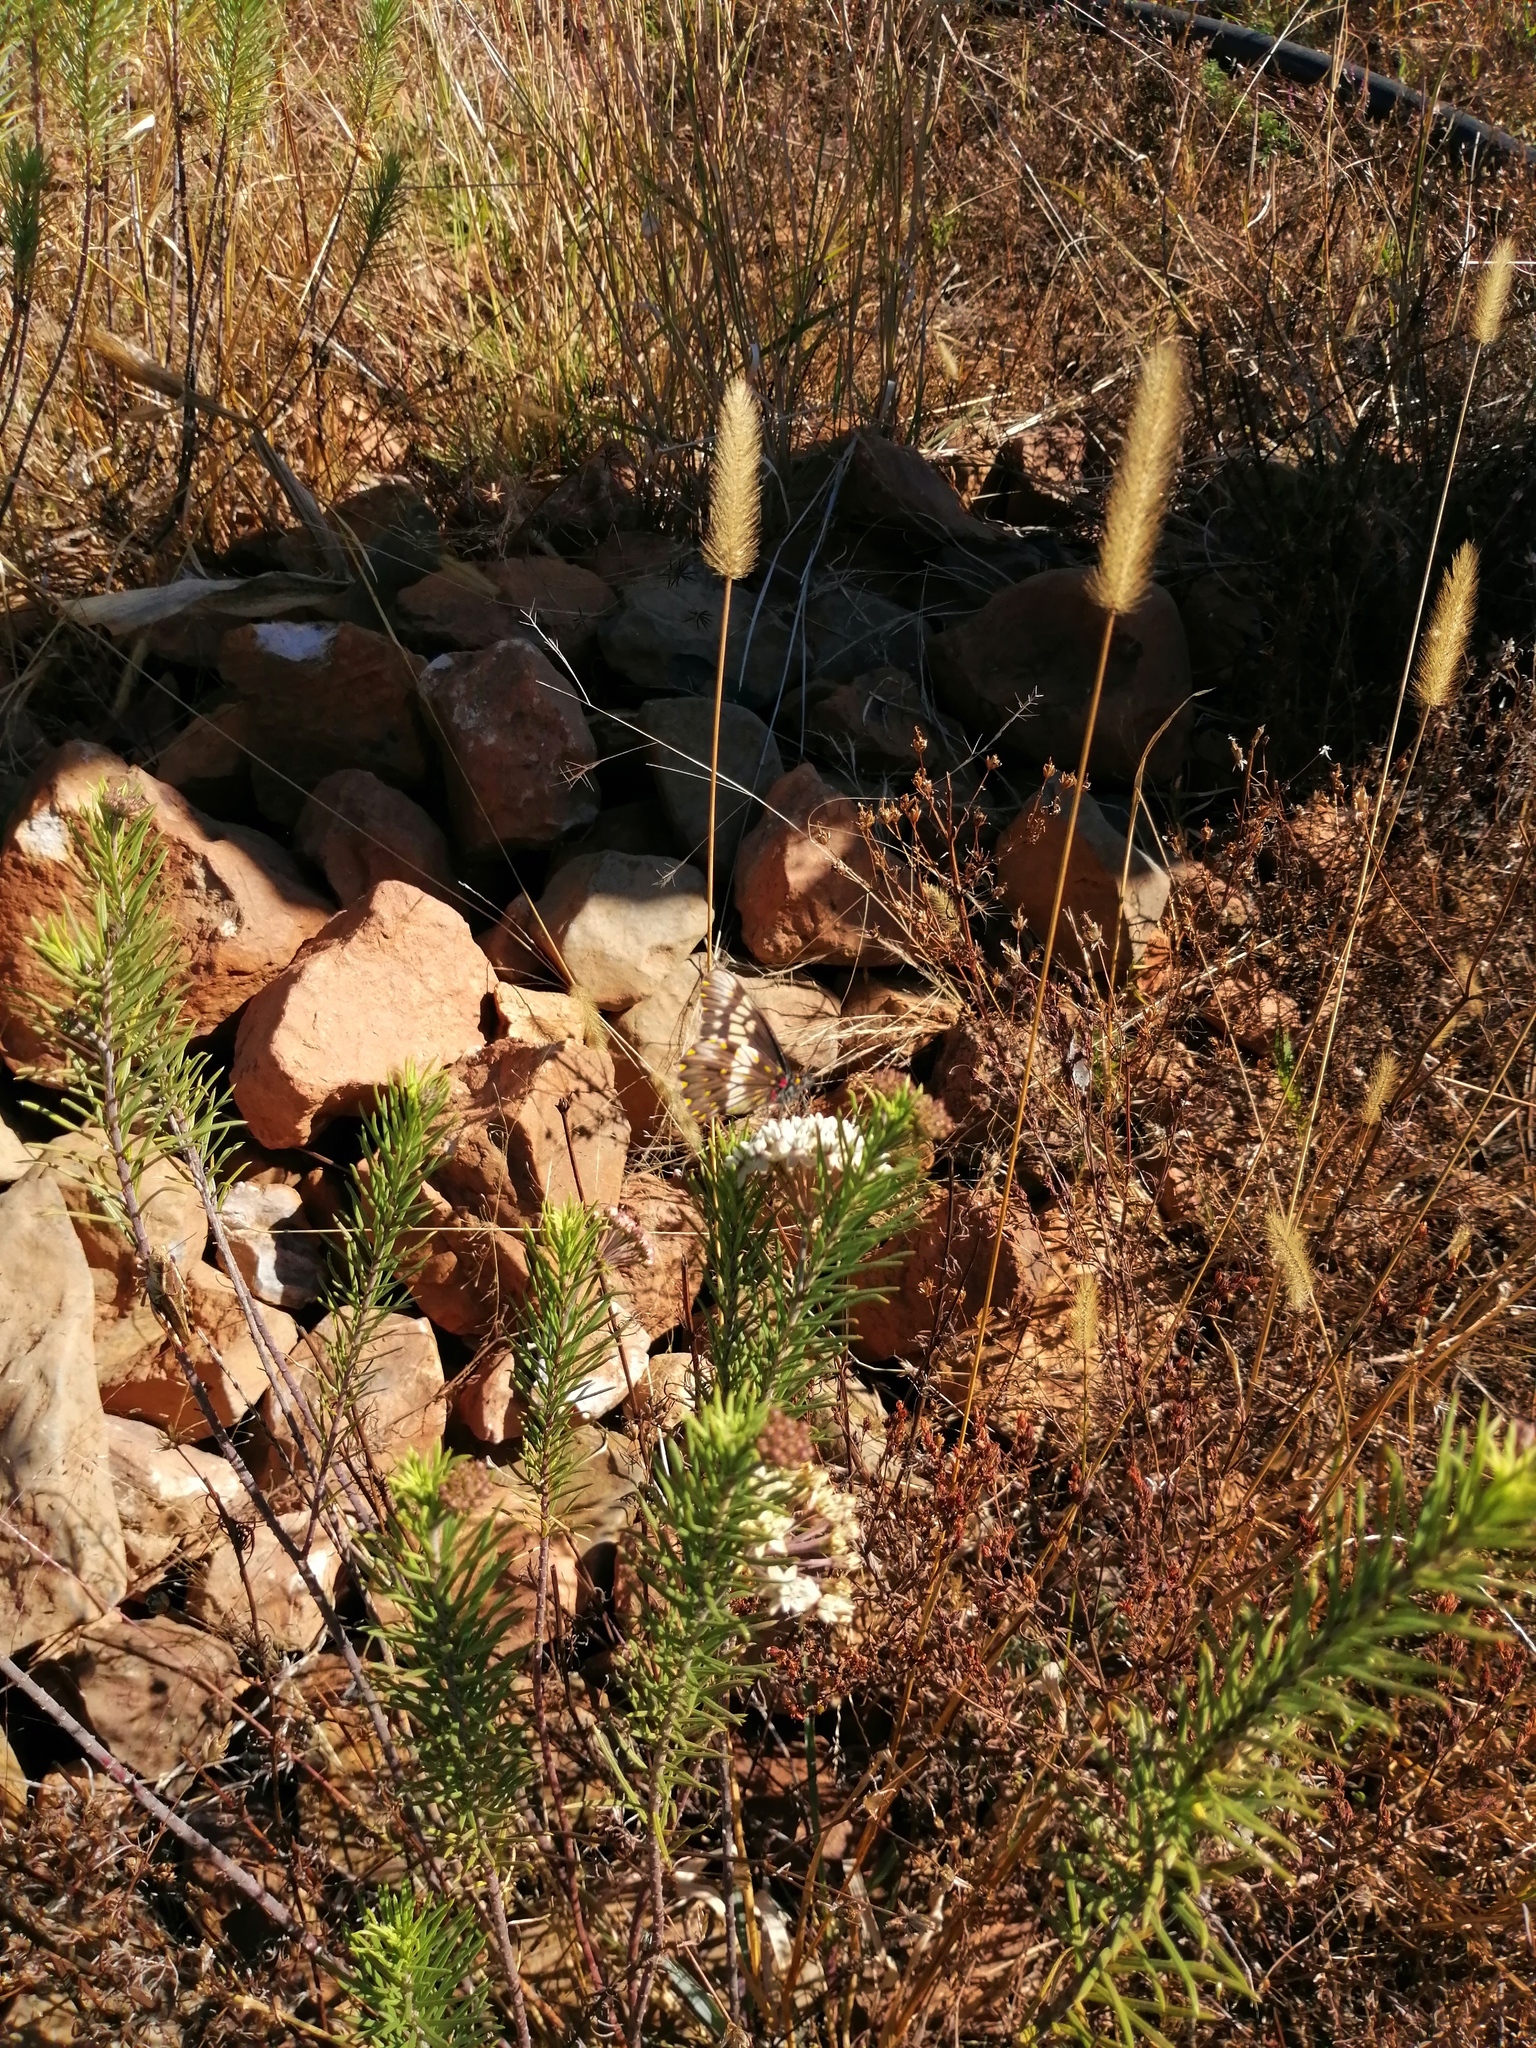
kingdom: Plantae
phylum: Tracheophyta
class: Magnoliopsida
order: Gentianales
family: Apocynaceae
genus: Asclepias
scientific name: Asclepias linaria
